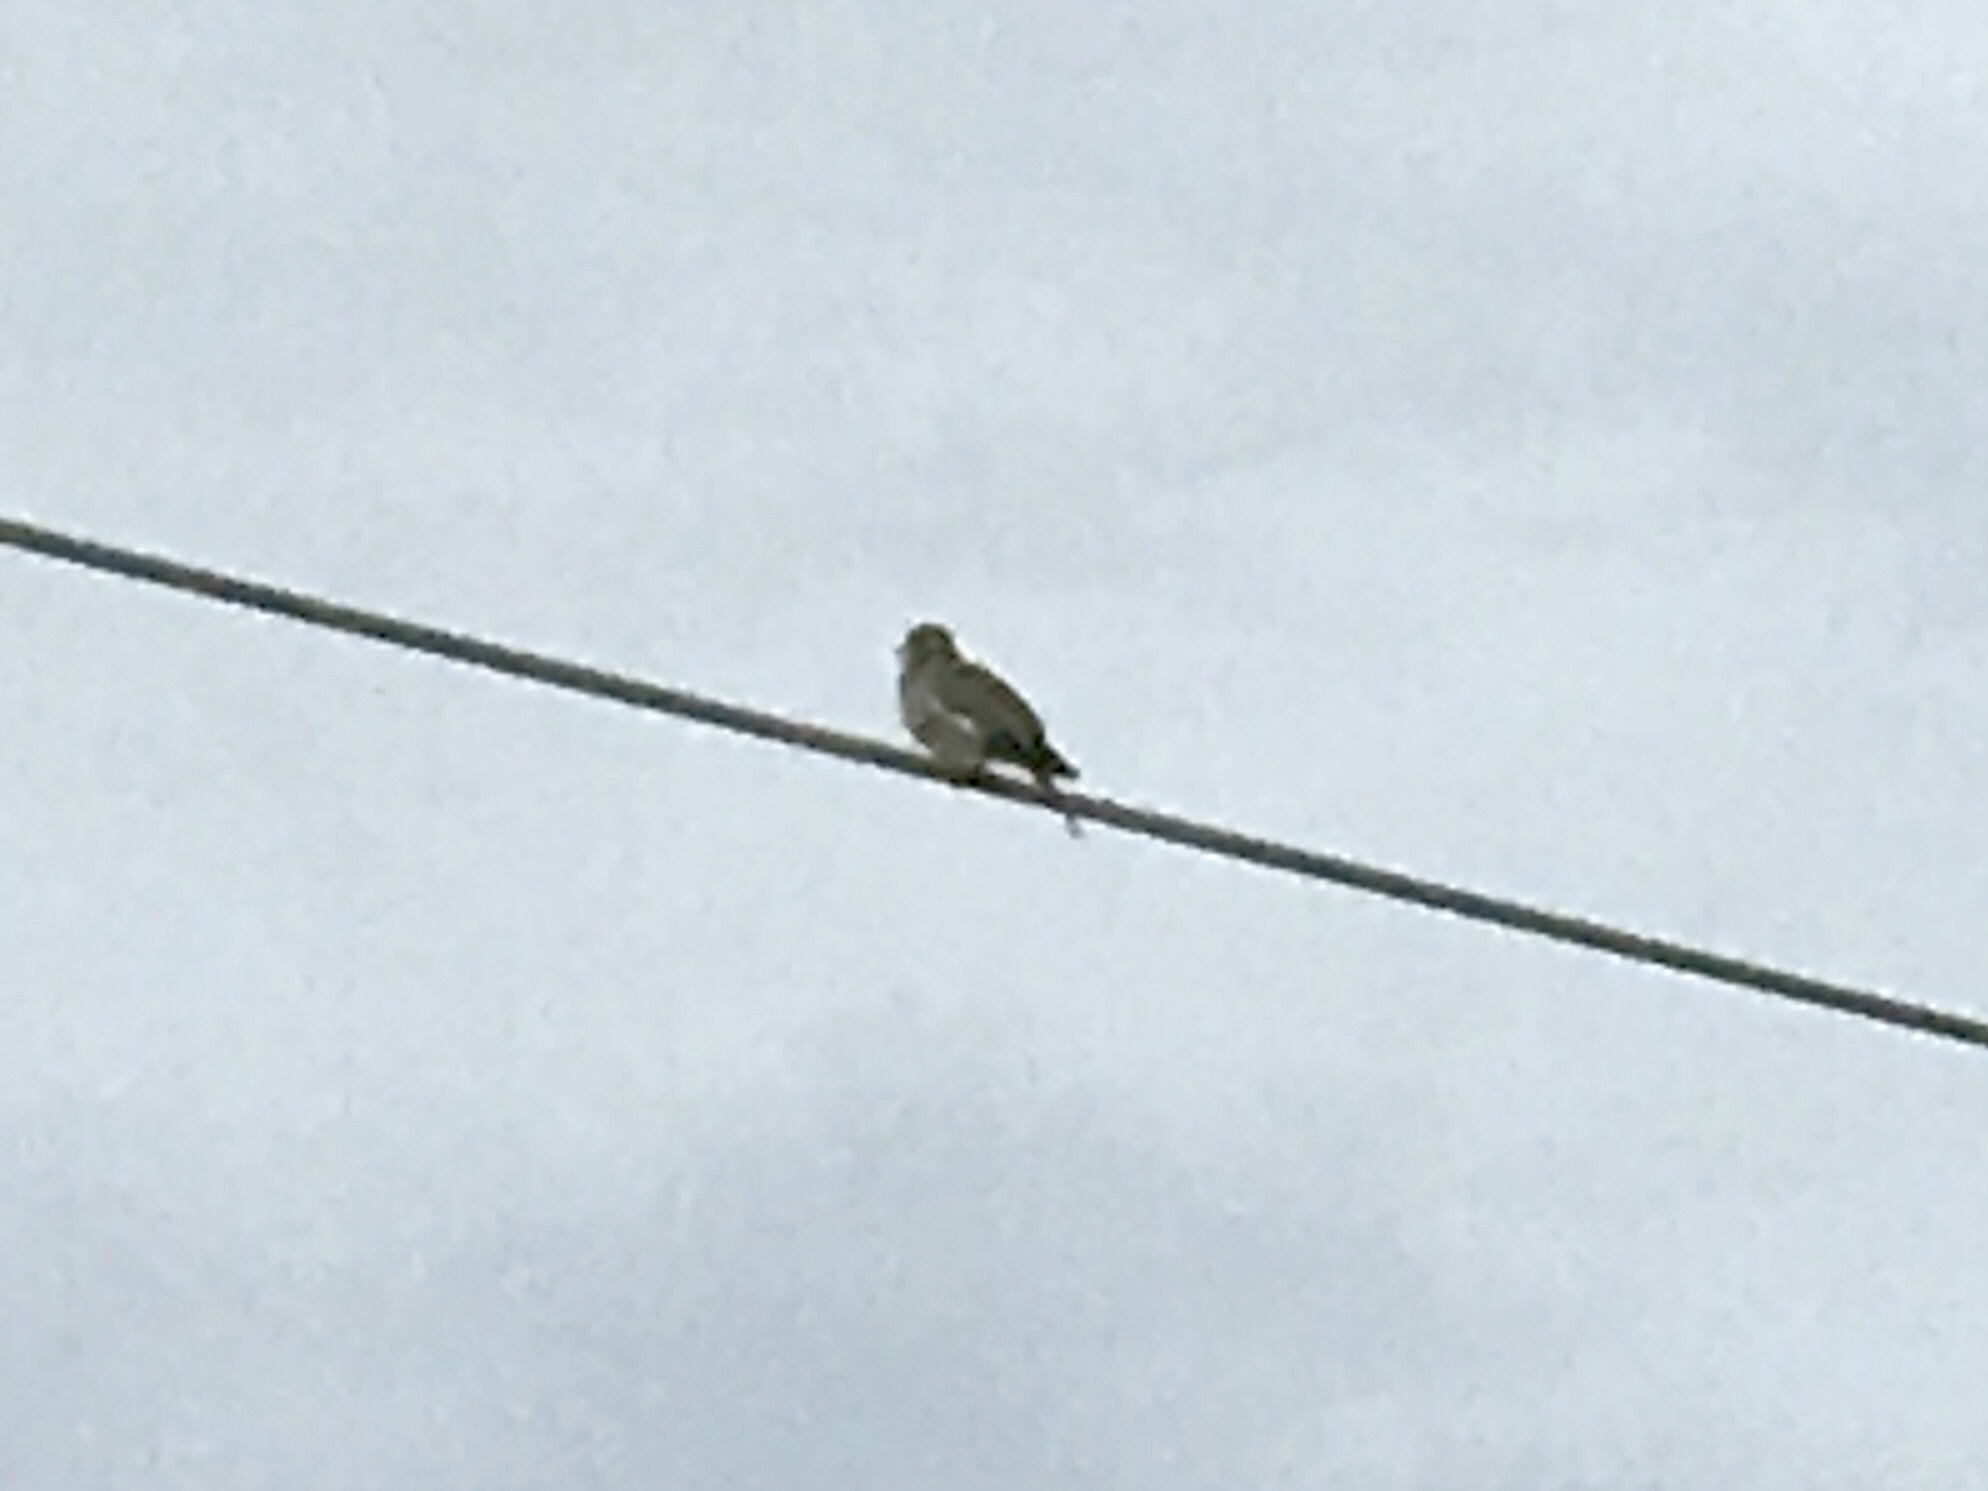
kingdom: Animalia
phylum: Chordata
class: Aves
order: Columbiformes
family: Columbidae
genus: Zenaida
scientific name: Zenaida asiatica
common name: White-winged dove
